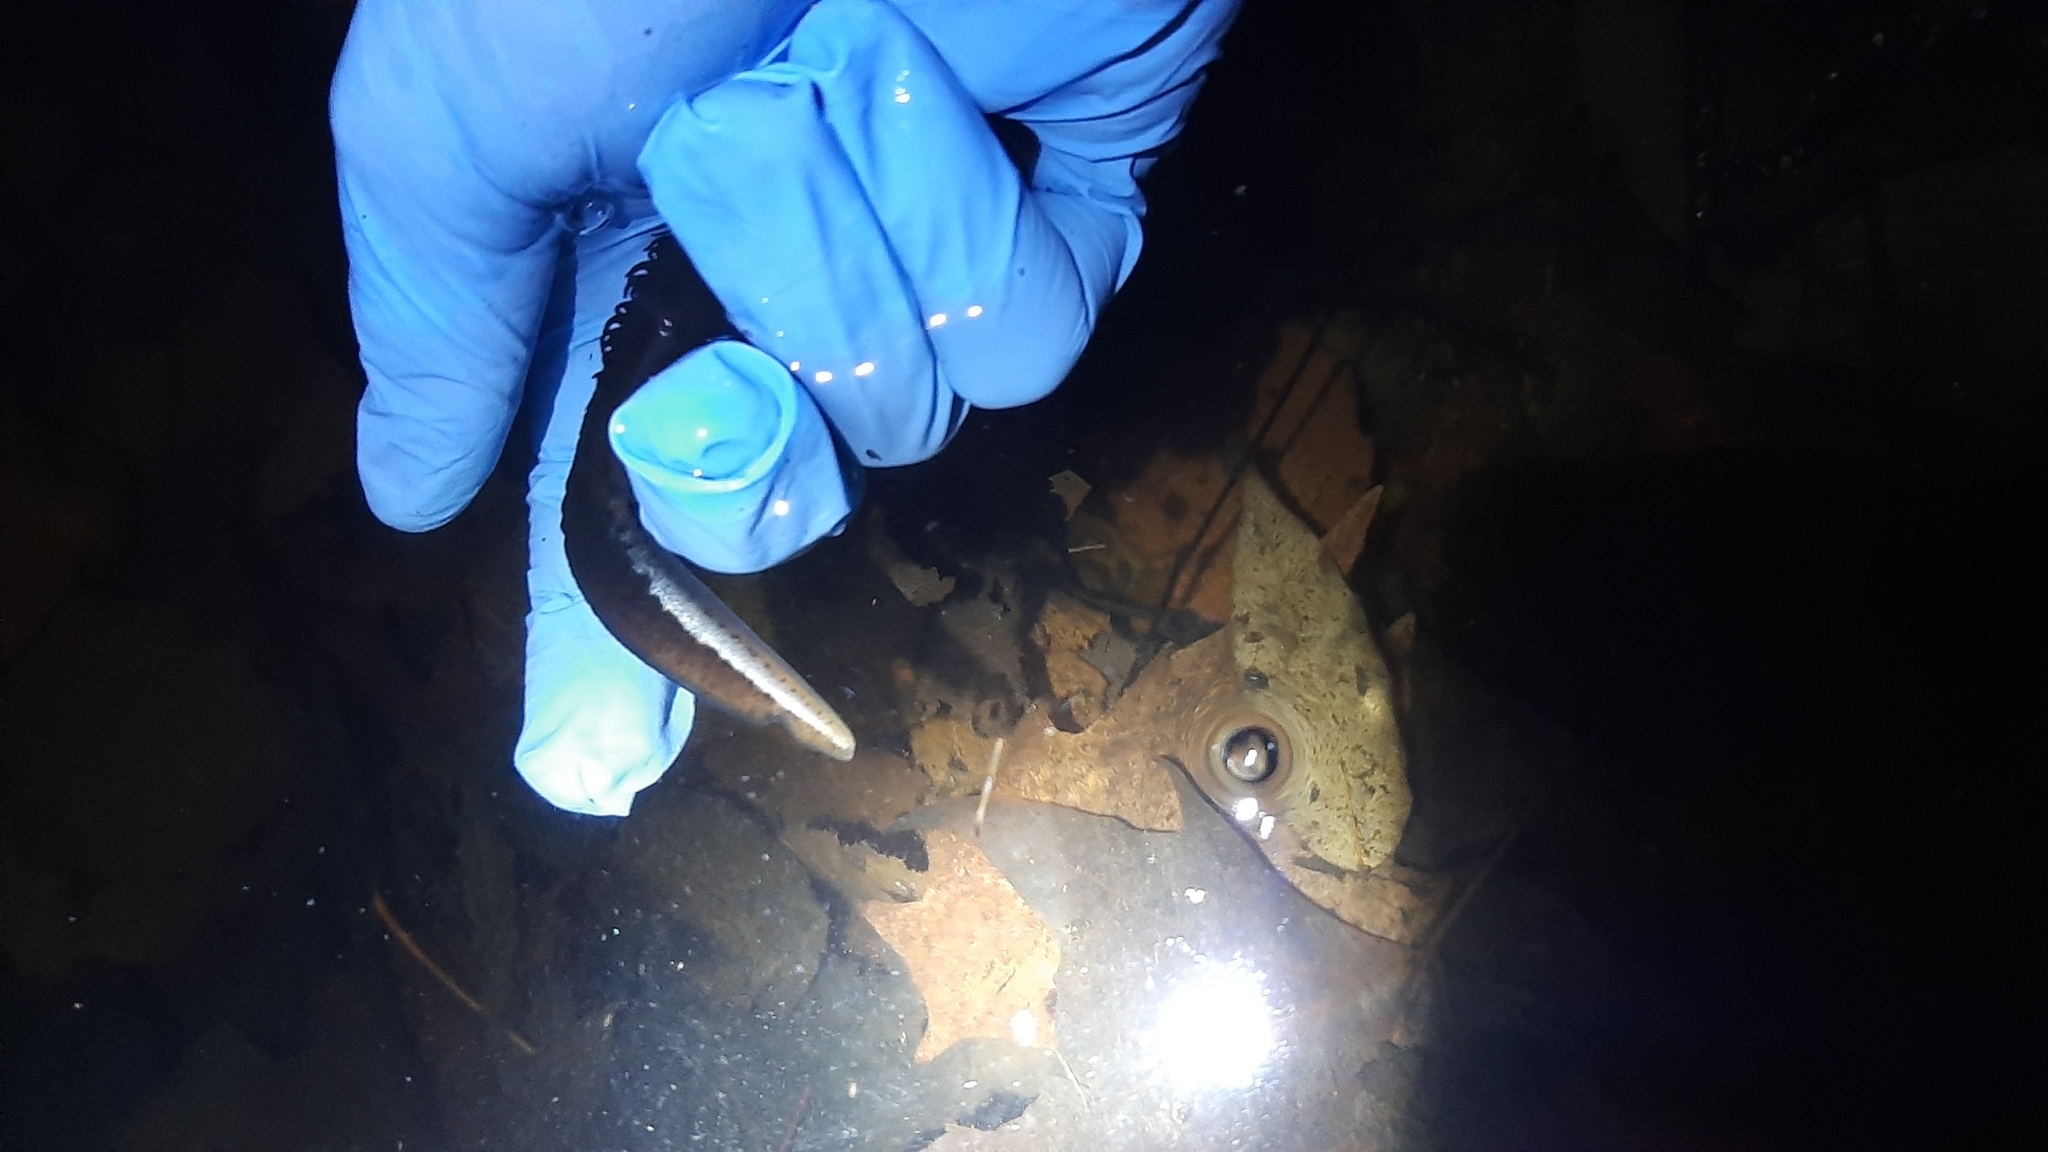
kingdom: Animalia
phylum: Chordata
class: Amphibia
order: Caudata
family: Salamandridae
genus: Triturus
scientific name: Triturus carnifex
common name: Italian crested newt
